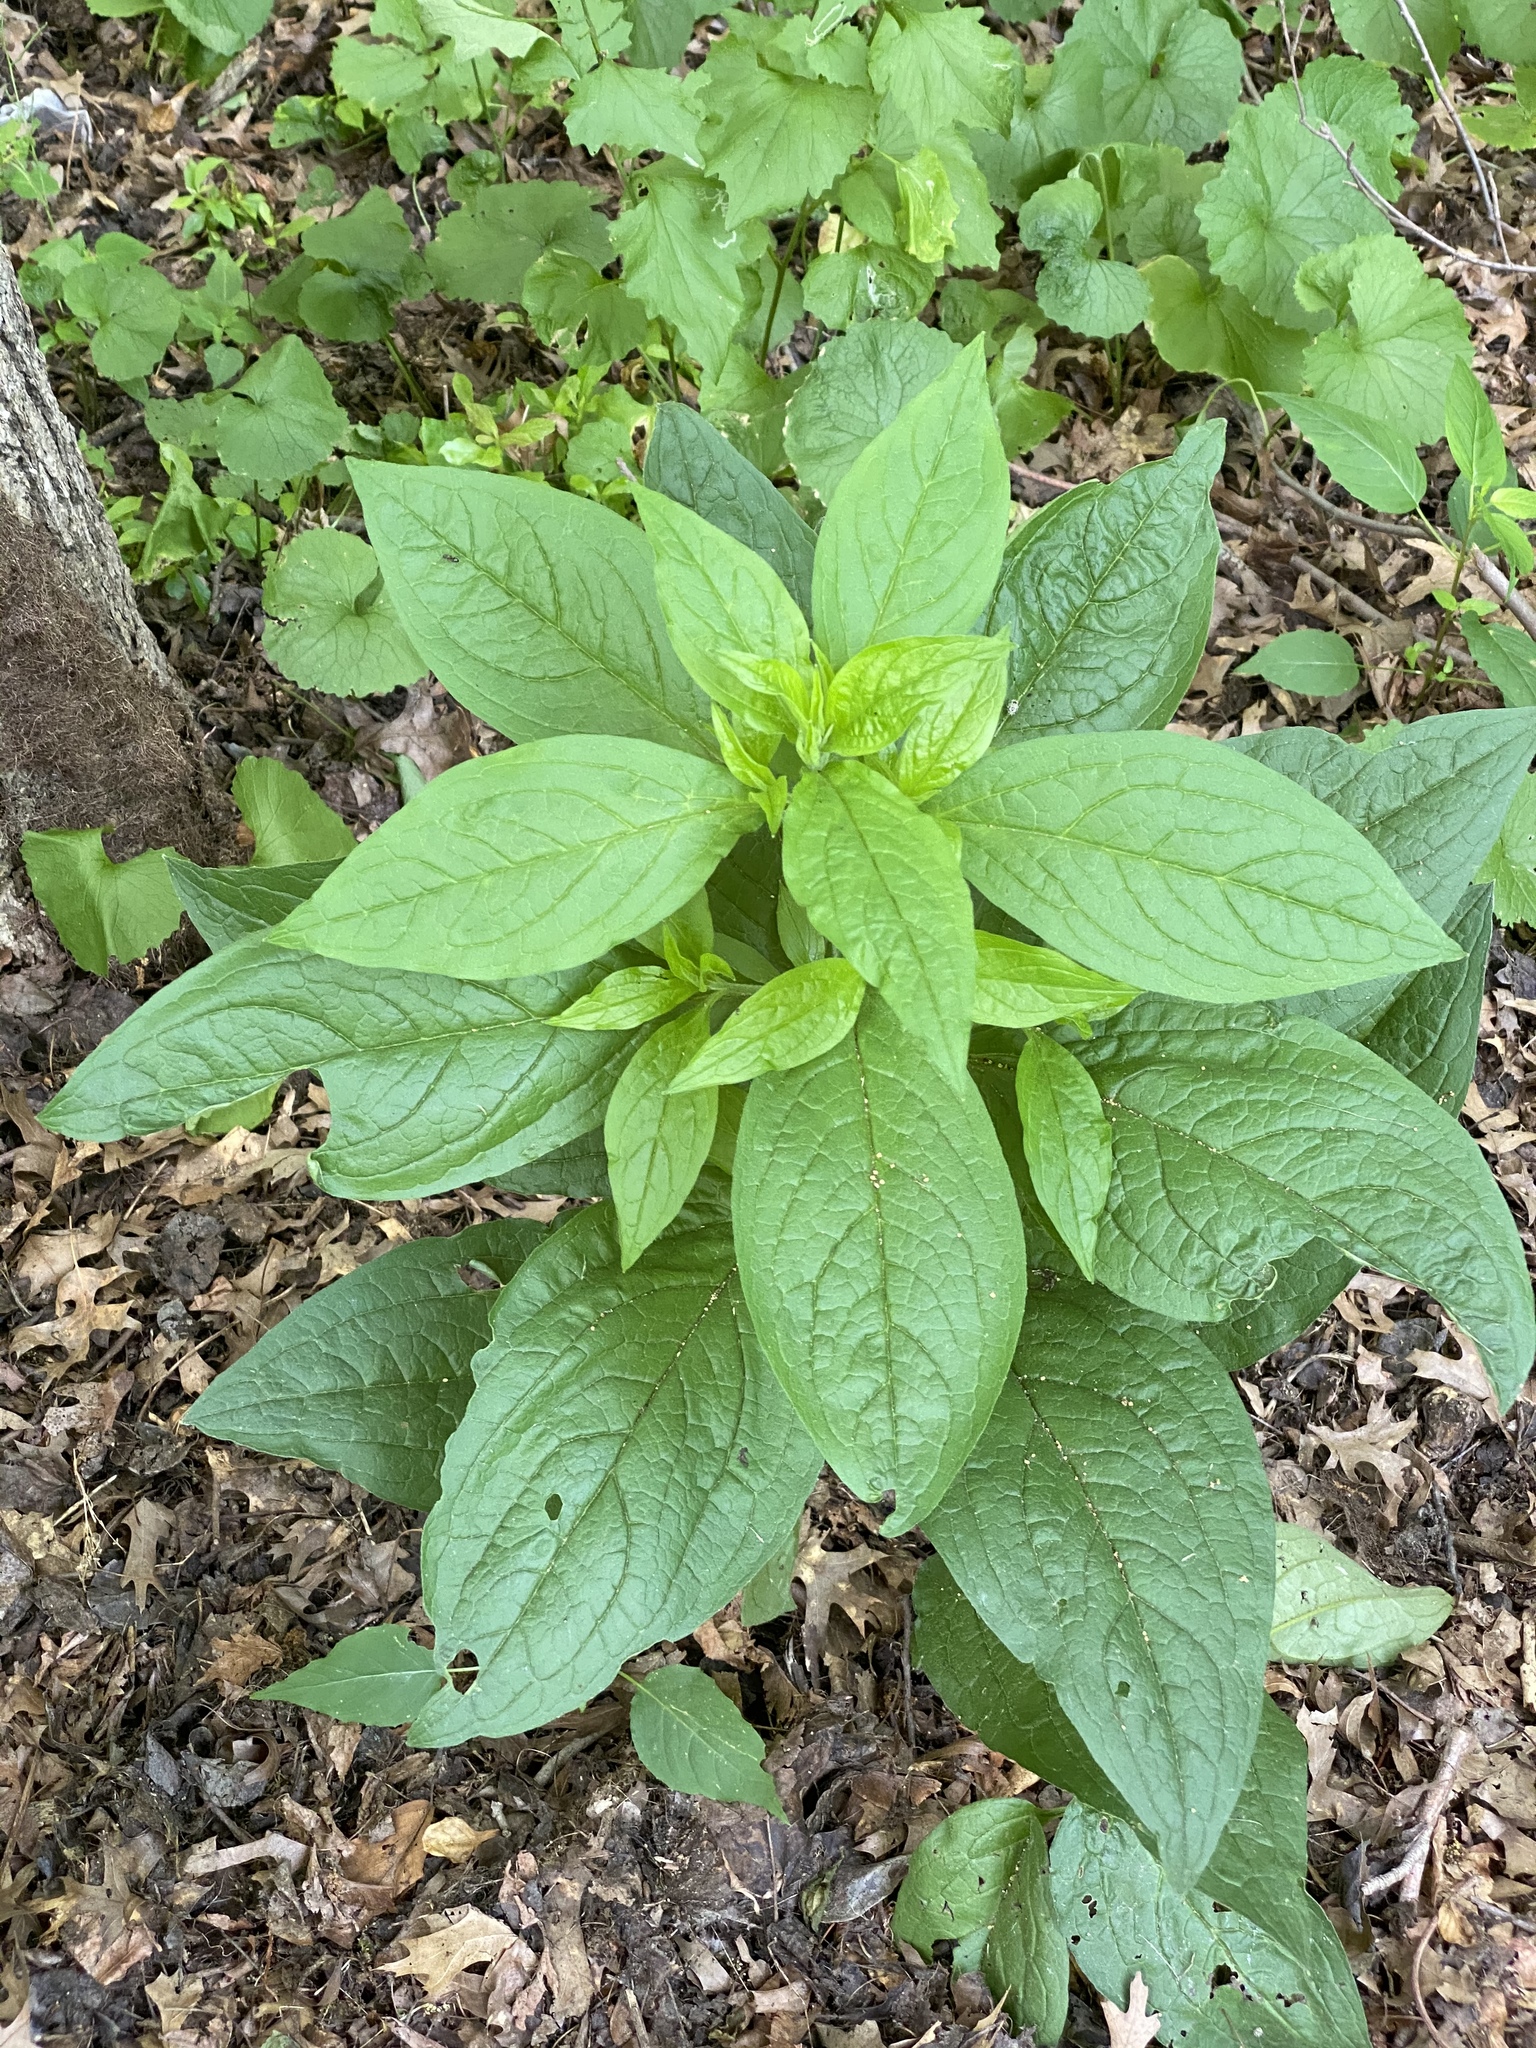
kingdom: Plantae
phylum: Tracheophyta
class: Magnoliopsida
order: Boraginales
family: Boraginaceae
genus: Hackelia
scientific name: Hackelia virginiana
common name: Beggar's-lice
